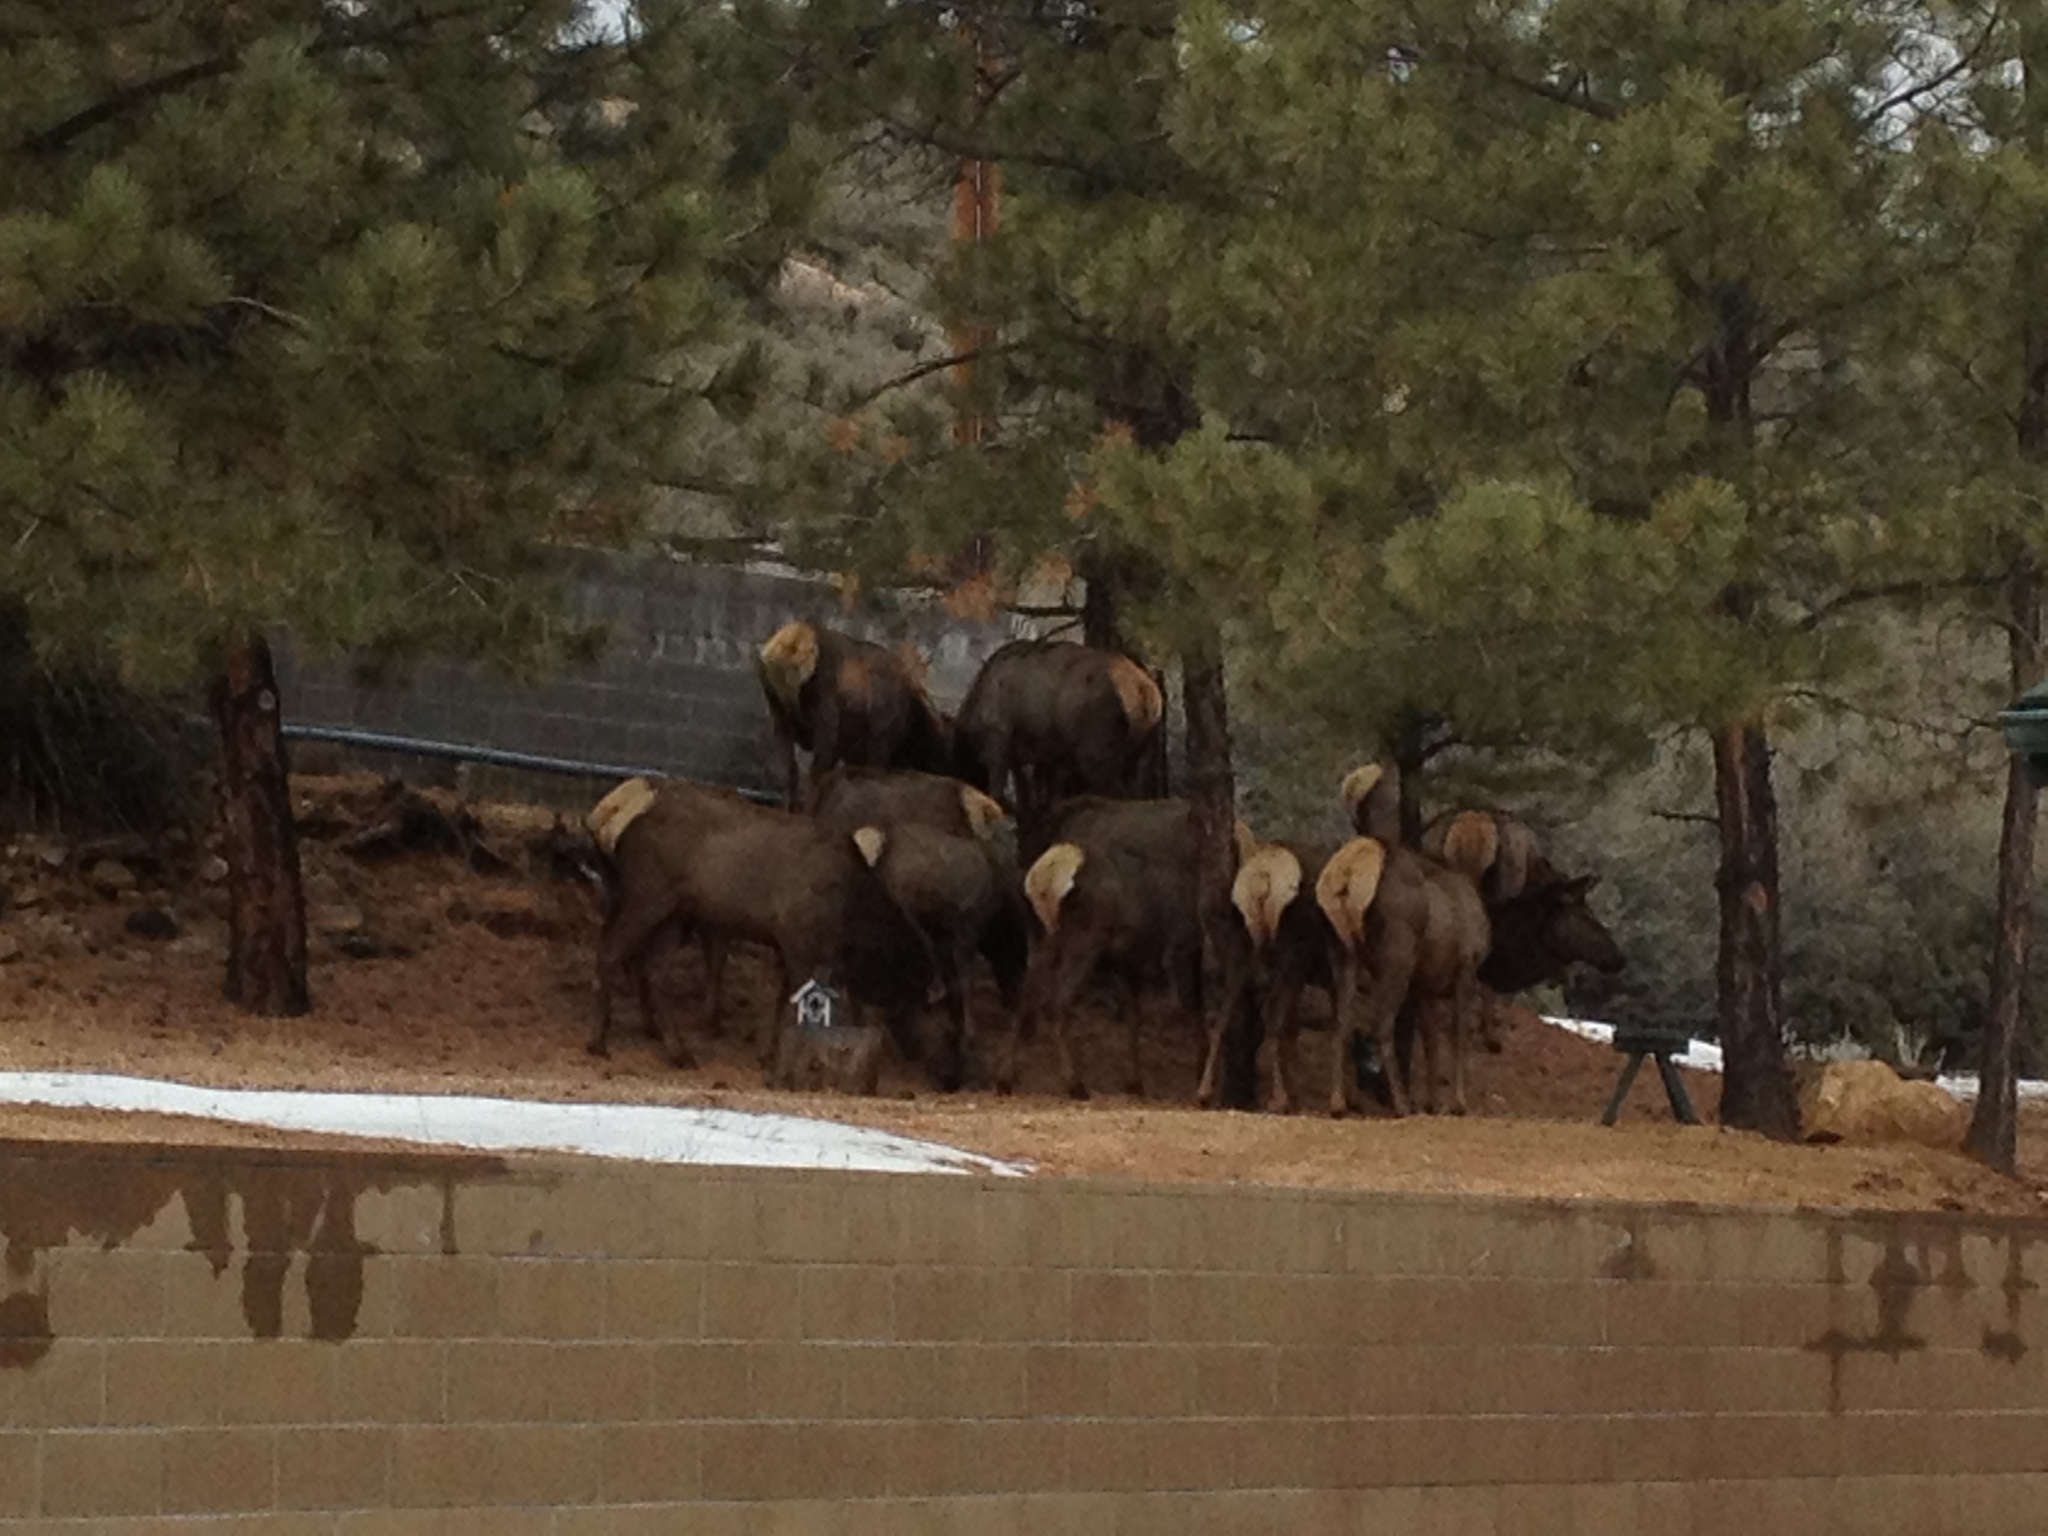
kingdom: Animalia
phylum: Chordata
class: Mammalia
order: Artiodactyla
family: Cervidae
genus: Cervus
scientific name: Cervus elaphus
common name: Red deer
